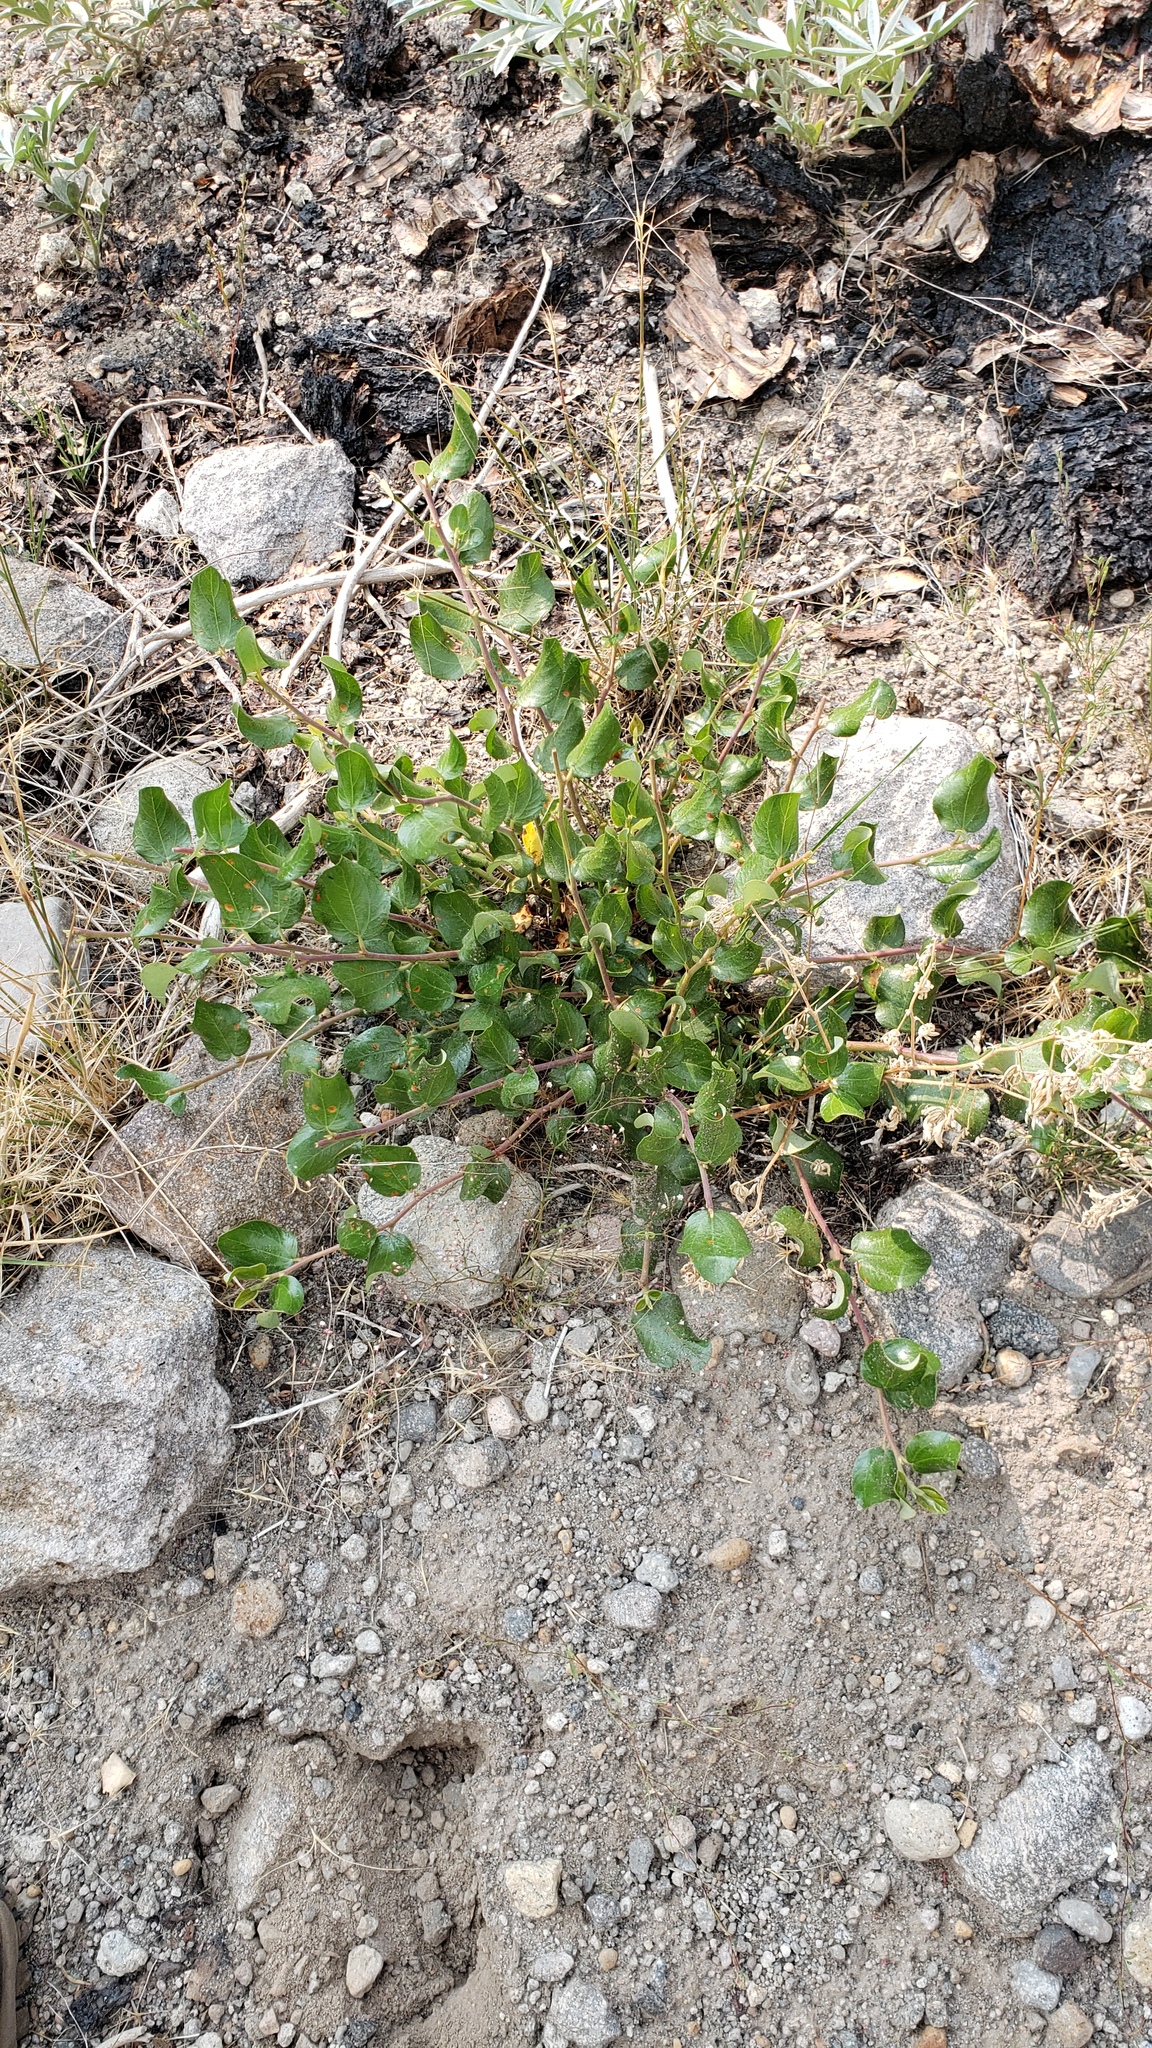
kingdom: Plantae
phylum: Tracheophyta
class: Magnoliopsida
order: Rosales
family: Rhamnaceae
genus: Ceanothus
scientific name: Ceanothus velutinus
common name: Snowbrush
